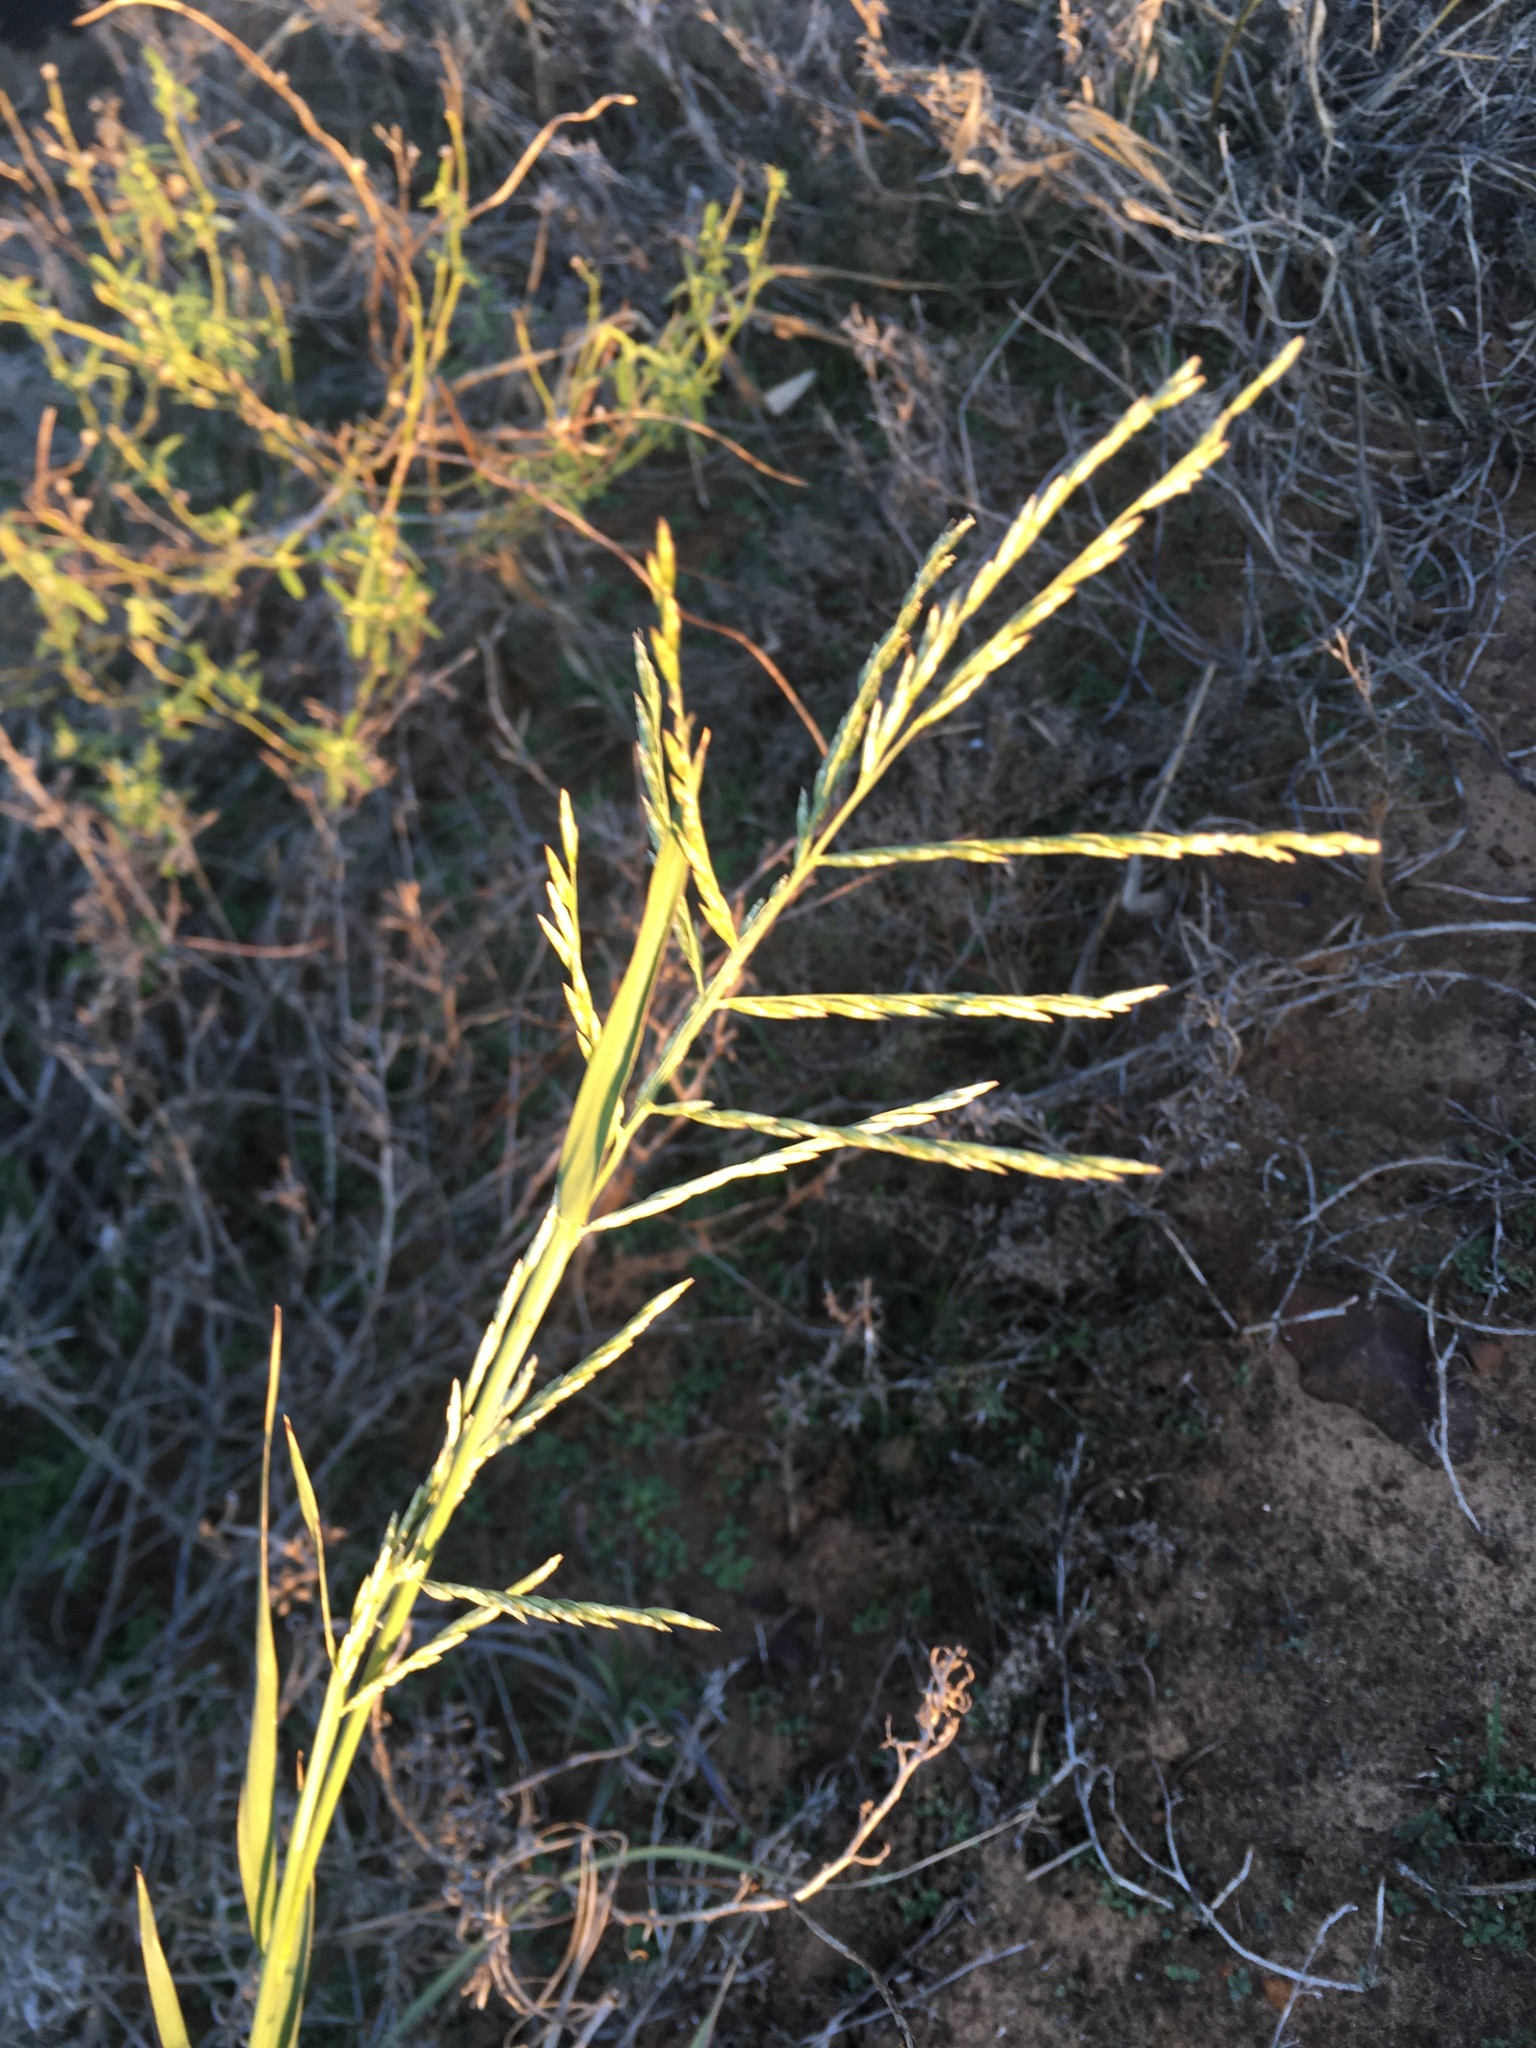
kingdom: Plantae
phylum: Tracheophyta
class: Liliopsida
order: Poales
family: Poaceae
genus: Disakisperma
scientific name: Disakisperma dubium
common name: Green sprangletop
